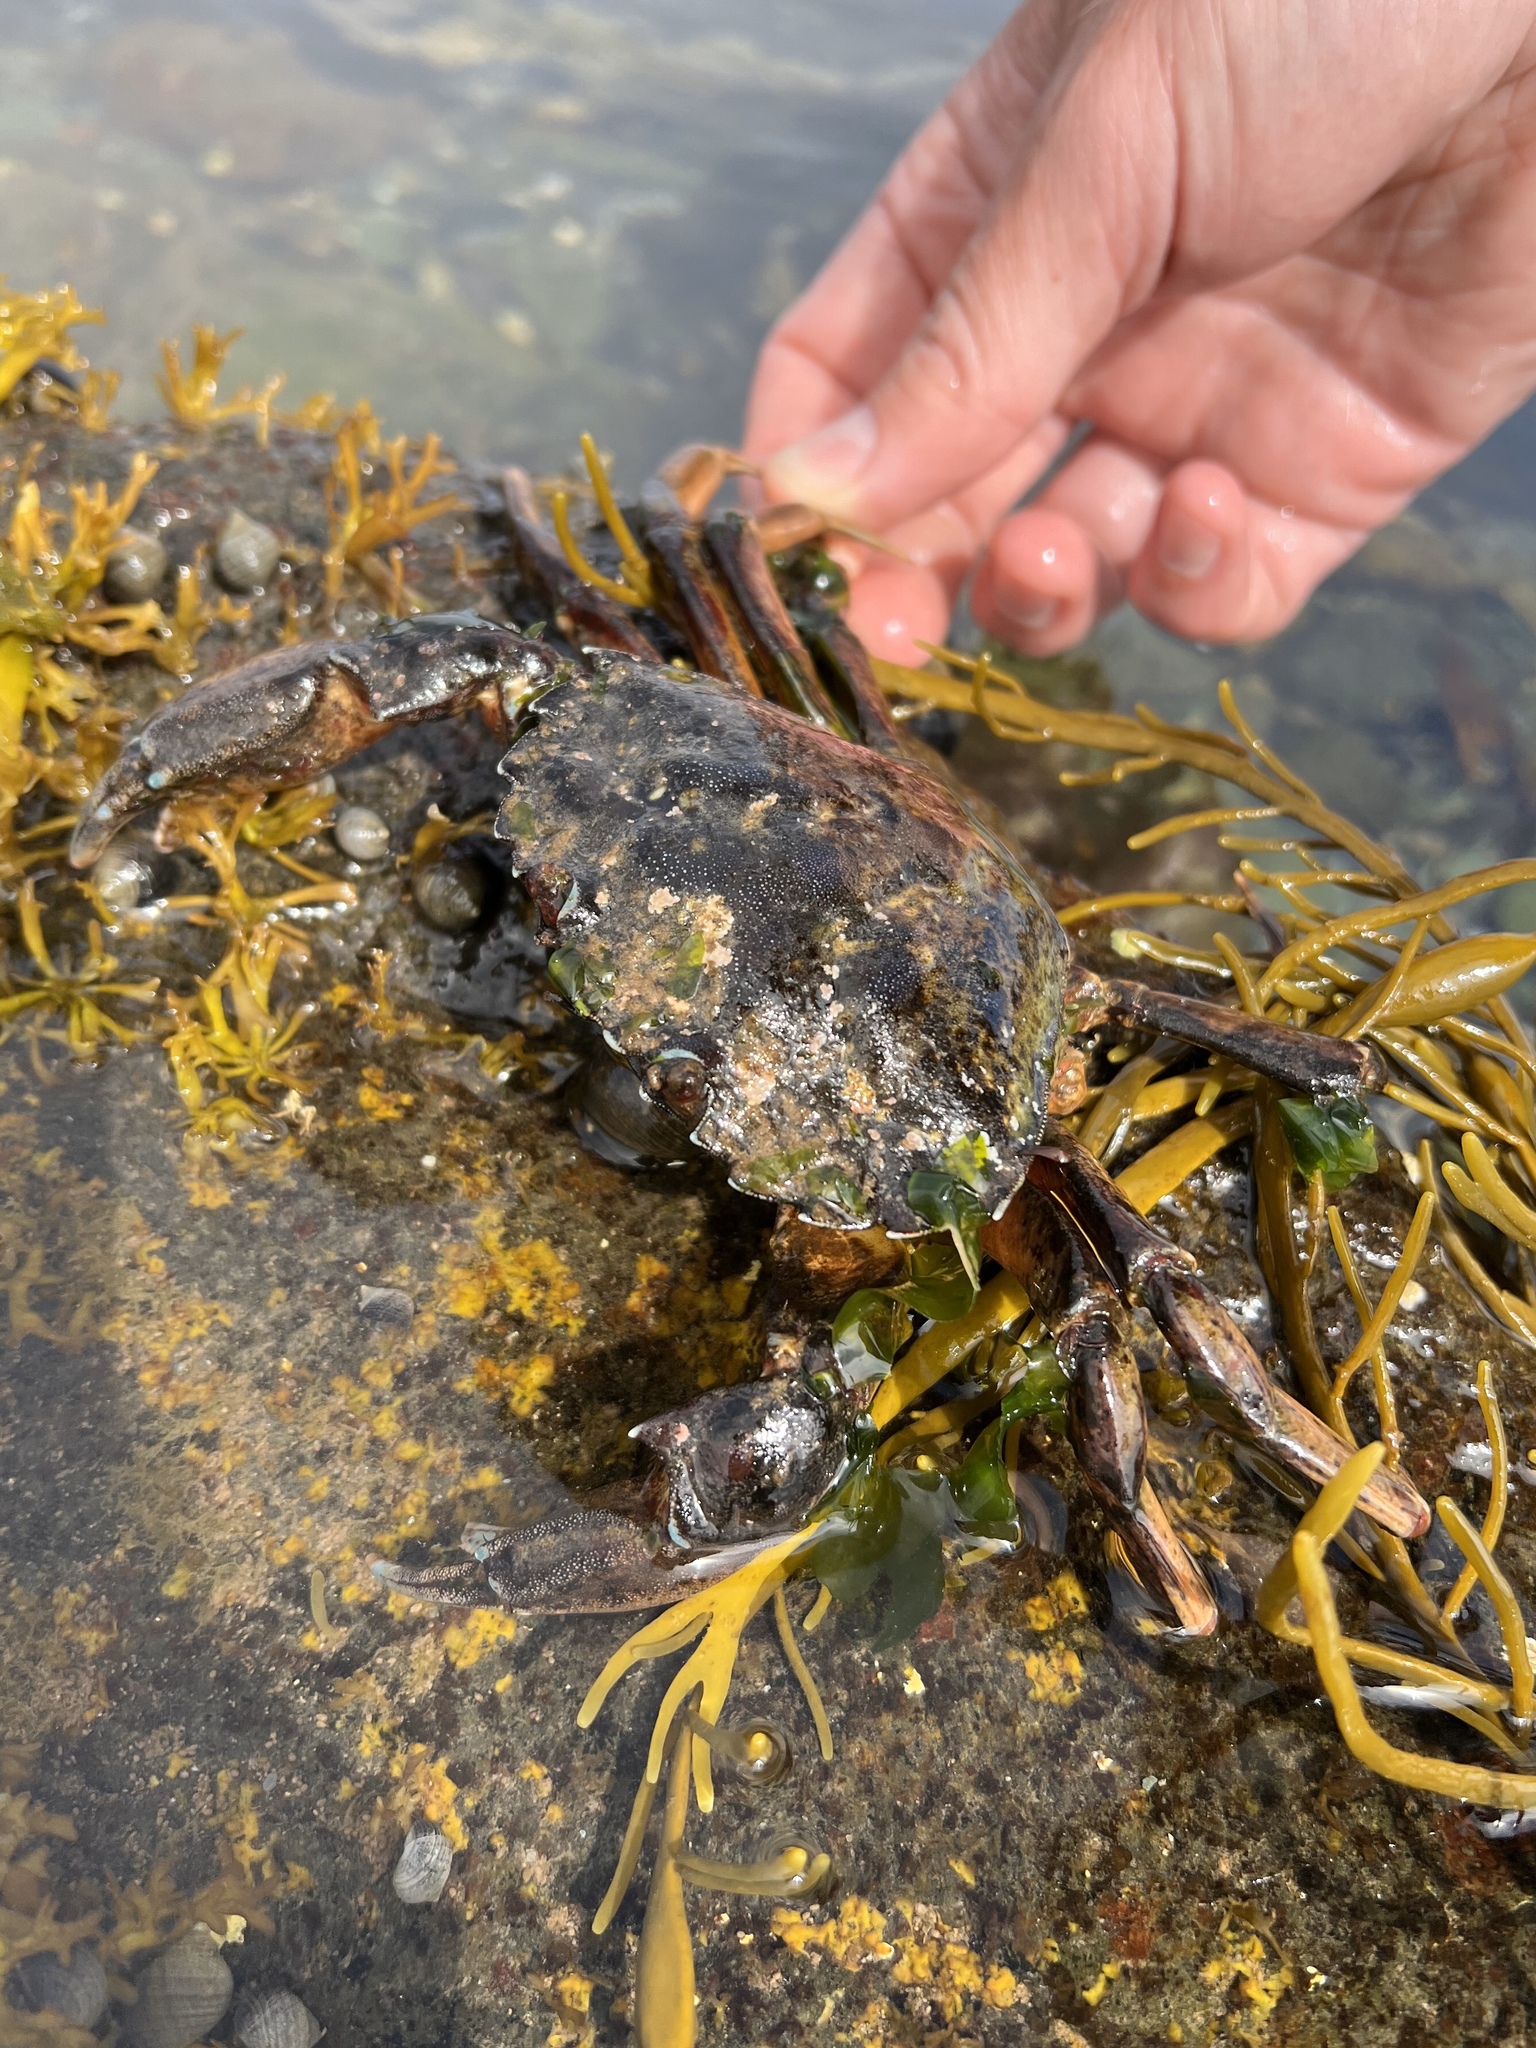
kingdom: Animalia
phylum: Arthropoda
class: Malacostraca
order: Decapoda
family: Carcinidae
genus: Carcinus
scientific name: Carcinus maenas
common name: European green crab
